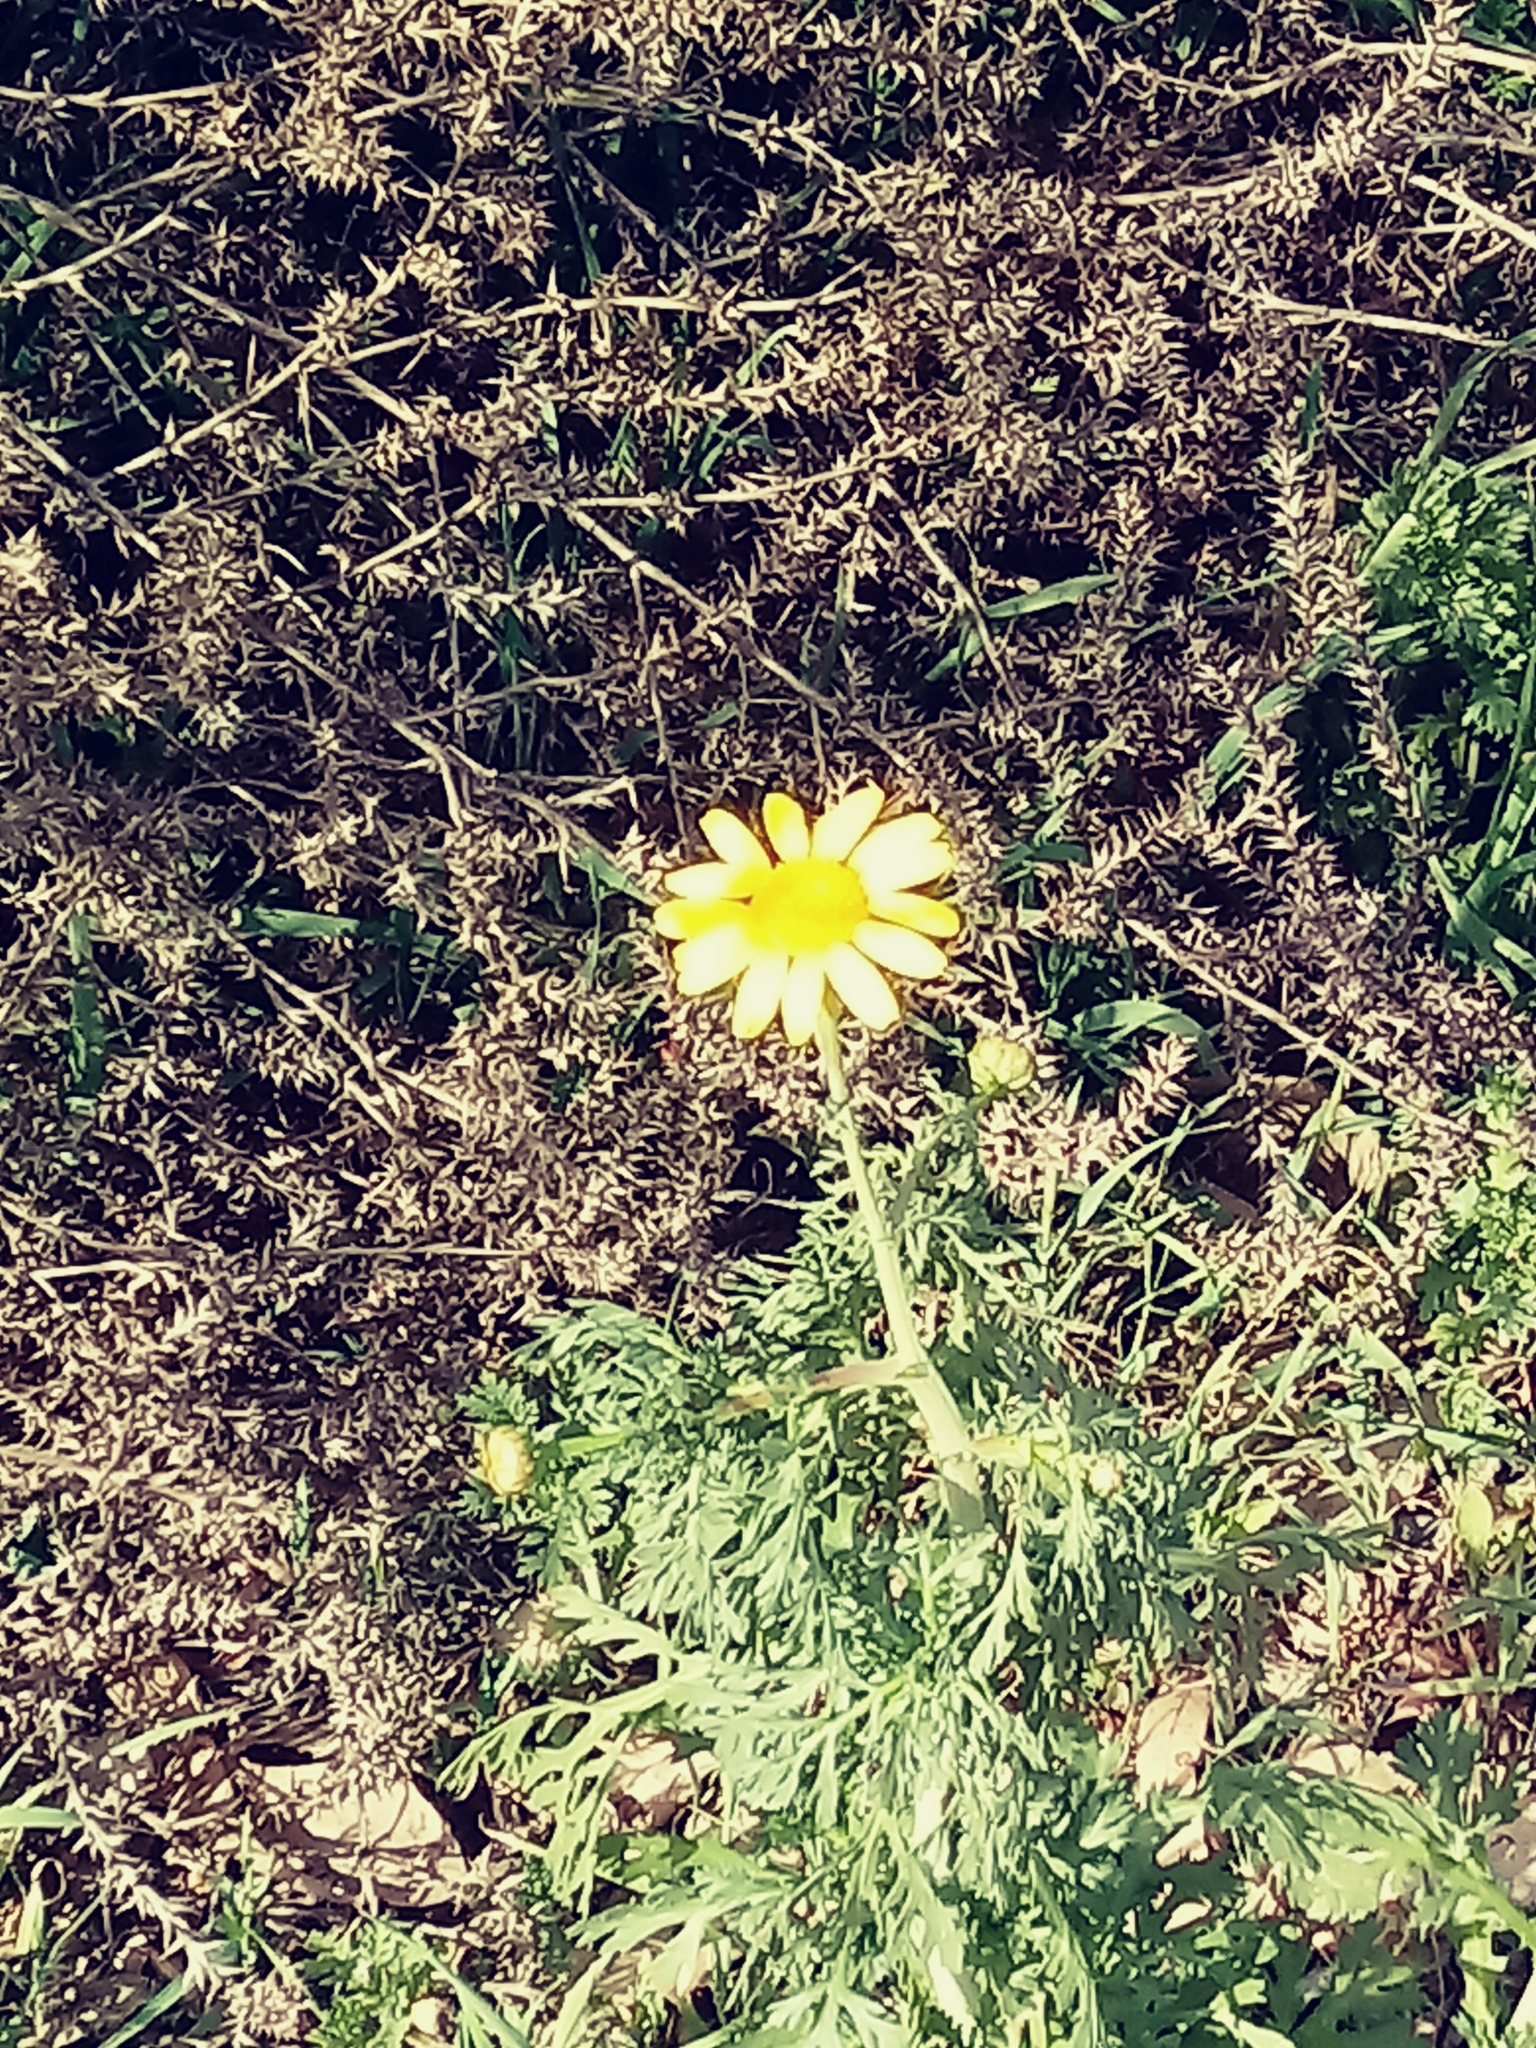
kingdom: Plantae
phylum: Tracheophyta
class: Magnoliopsida
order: Asterales
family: Asteraceae
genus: Glebionis
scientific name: Glebionis coronaria
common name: Crowndaisy
